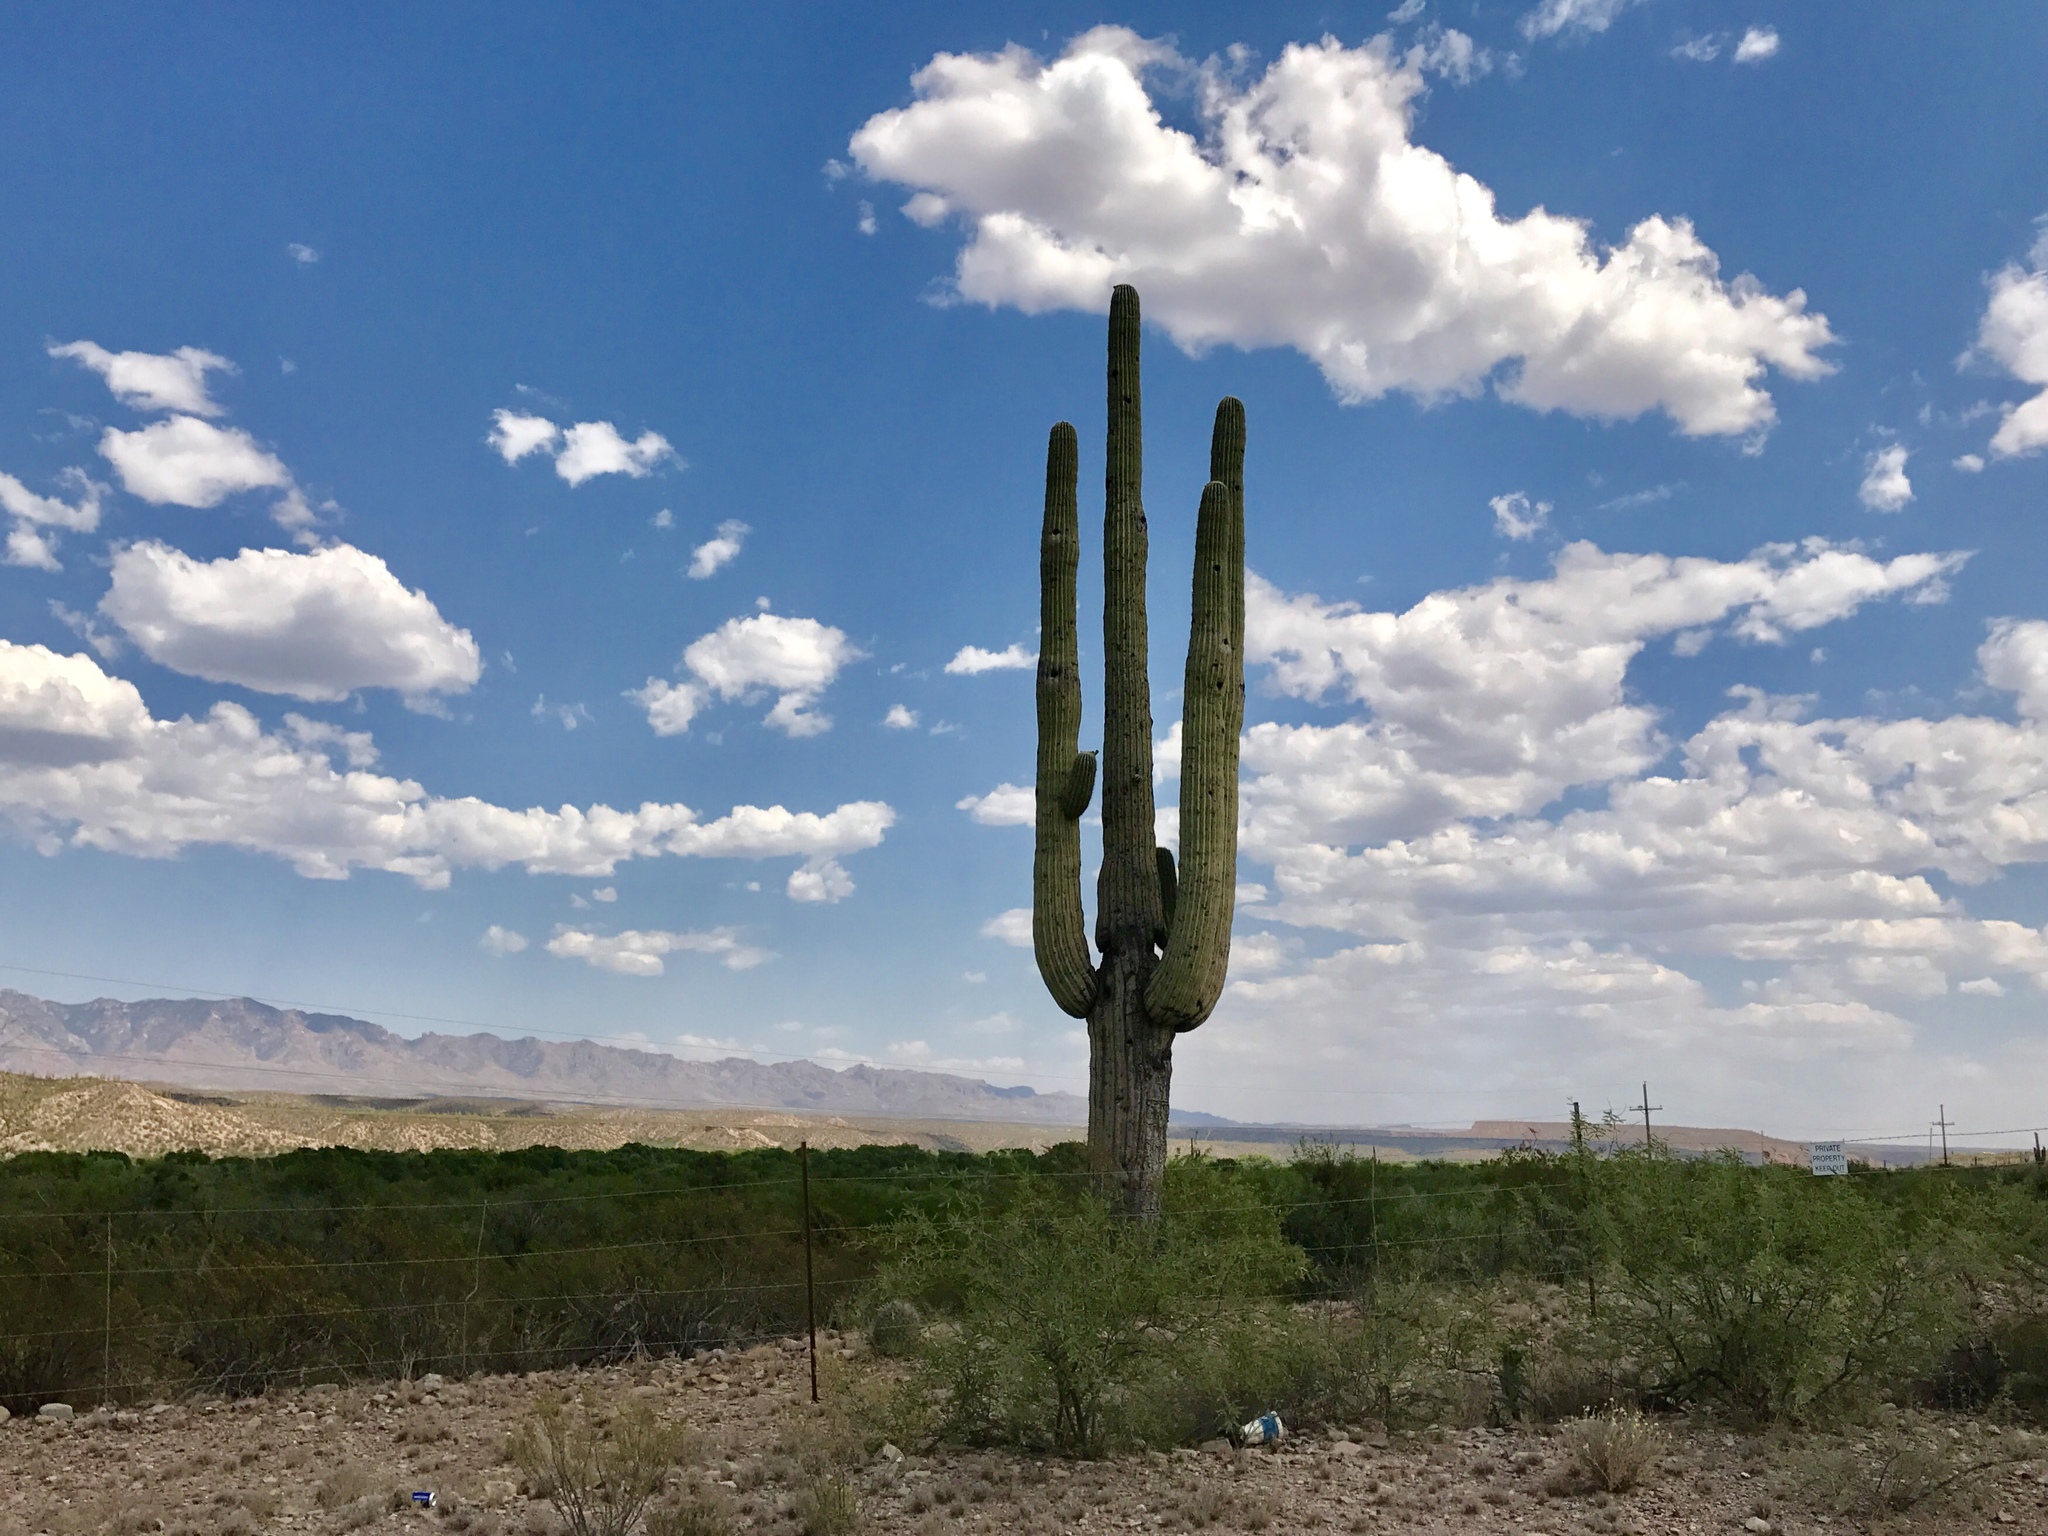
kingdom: Plantae
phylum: Tracheophyta
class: Magnoliopsida
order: Caryophyllales
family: Cactaceae
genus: Carnegiea
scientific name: Carnegiea gigantea
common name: Saguaro
